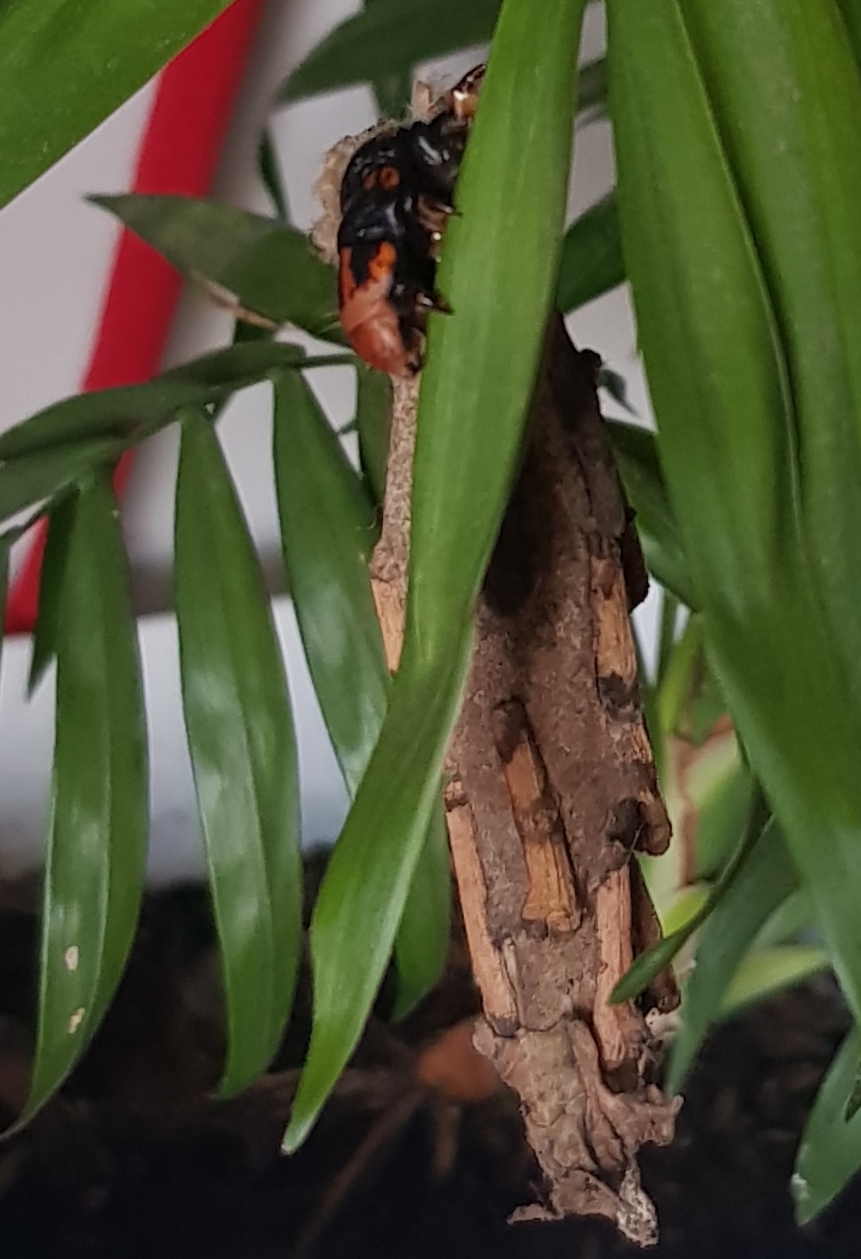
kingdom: Animalia
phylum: Arthropoda
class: Insecta
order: Lepidoptera
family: Psychidae
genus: Metura
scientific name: Metura elongatus
